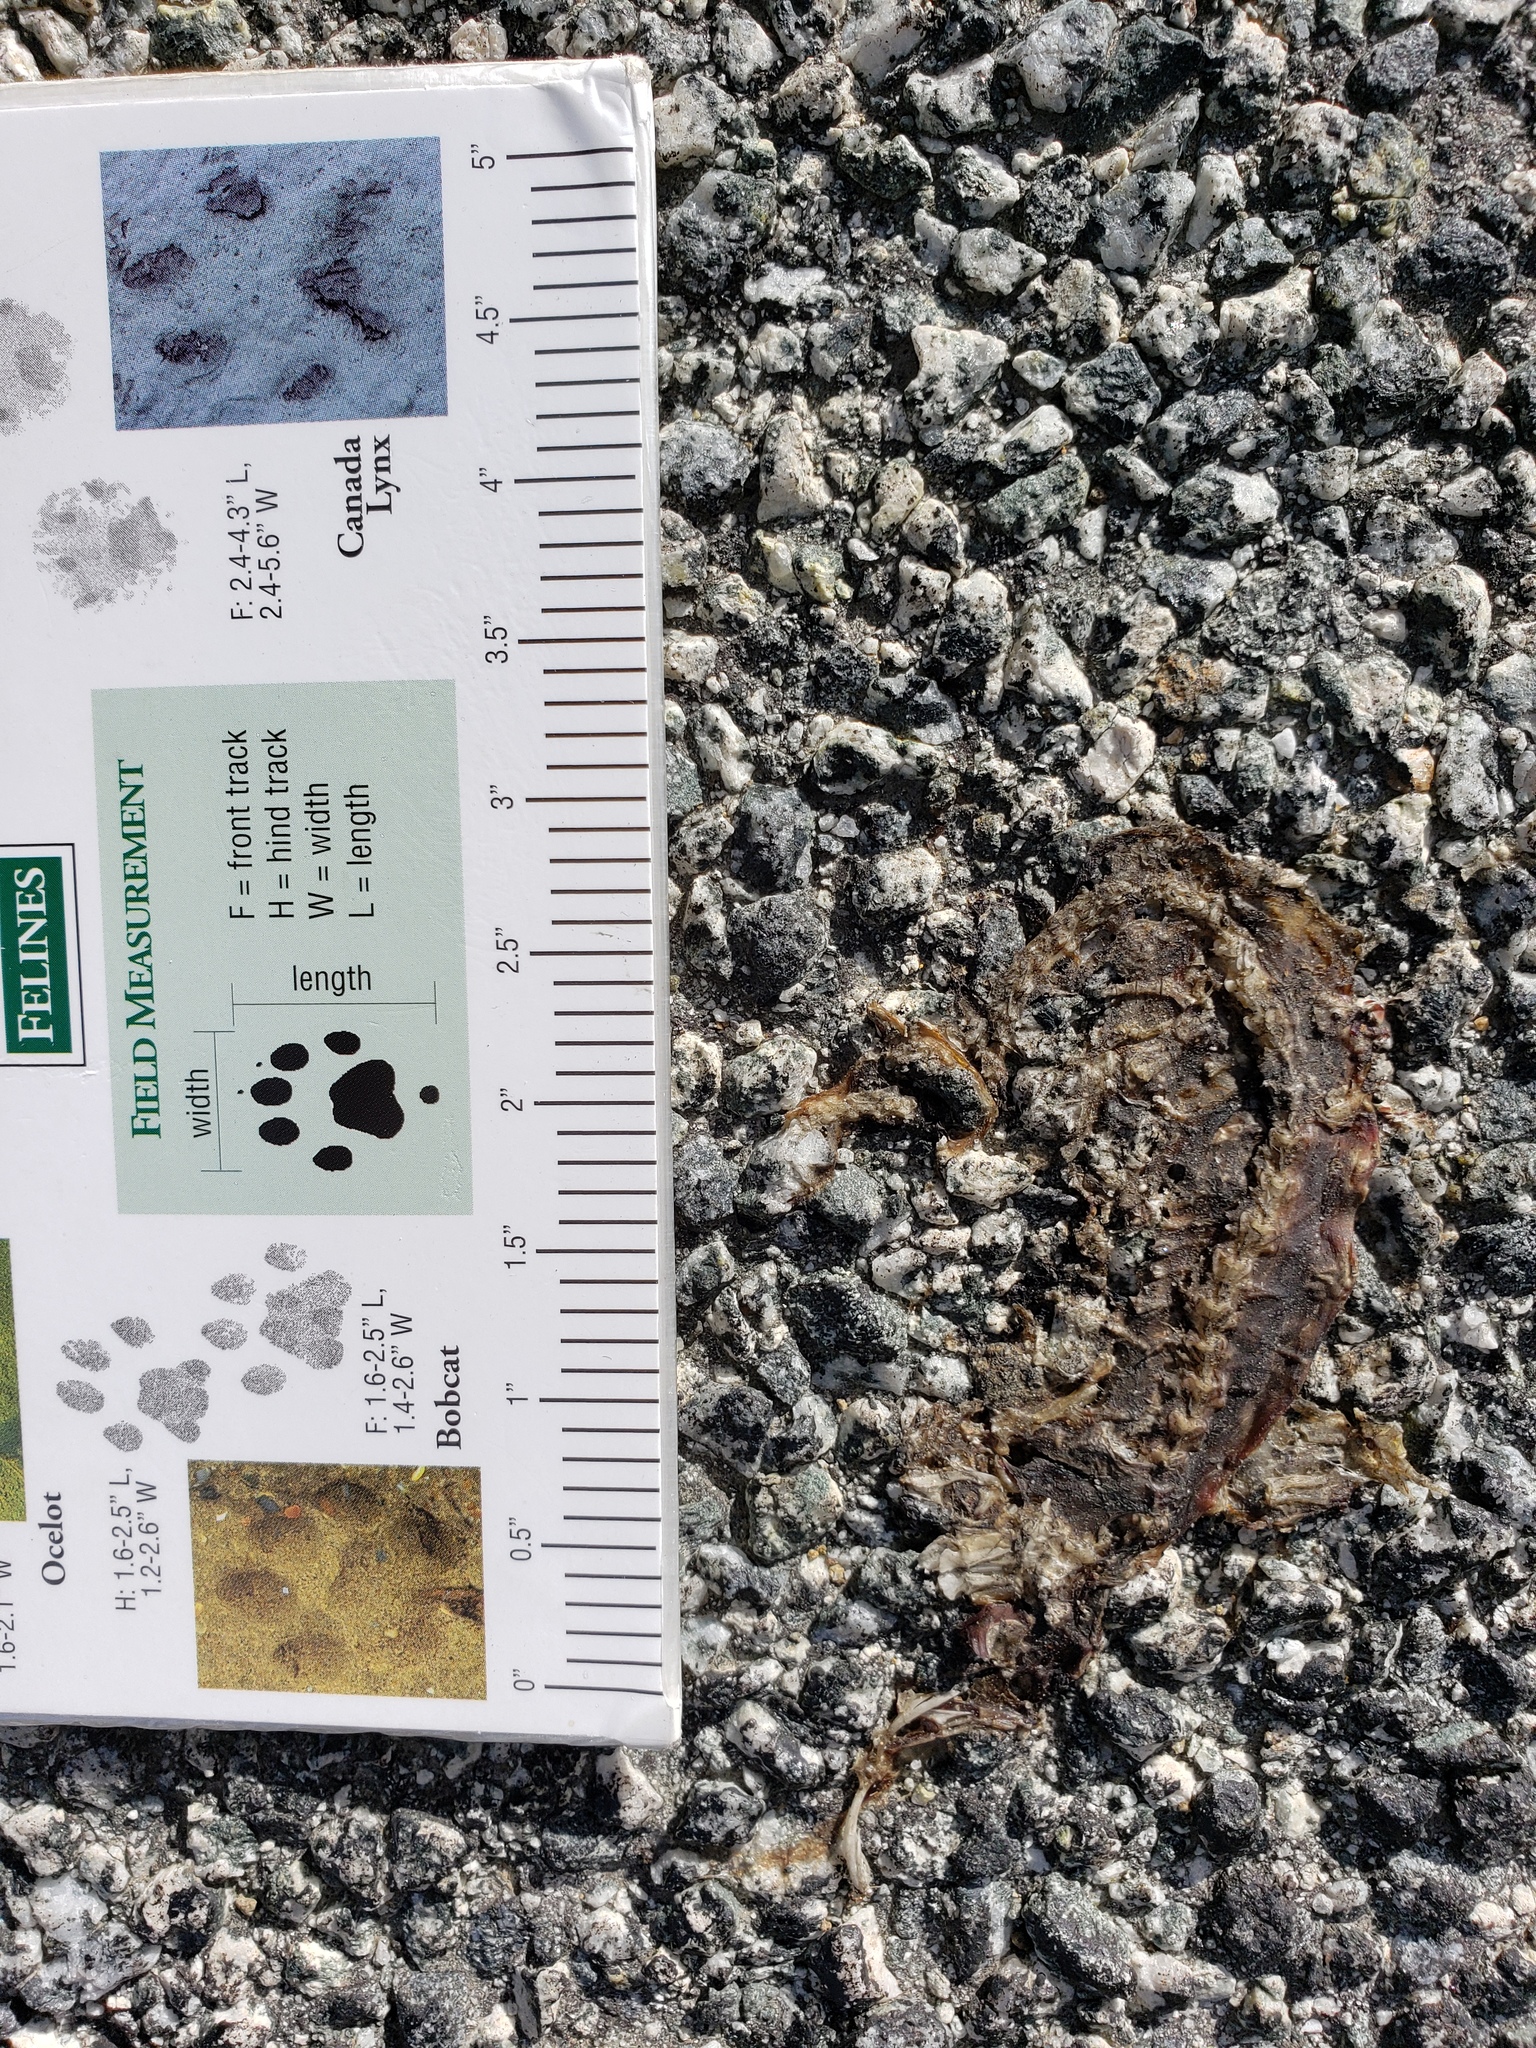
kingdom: Animalia
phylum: Chordata
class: Amphibia
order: Caudata
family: Salamandridae
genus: Taricha
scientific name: Taricha
